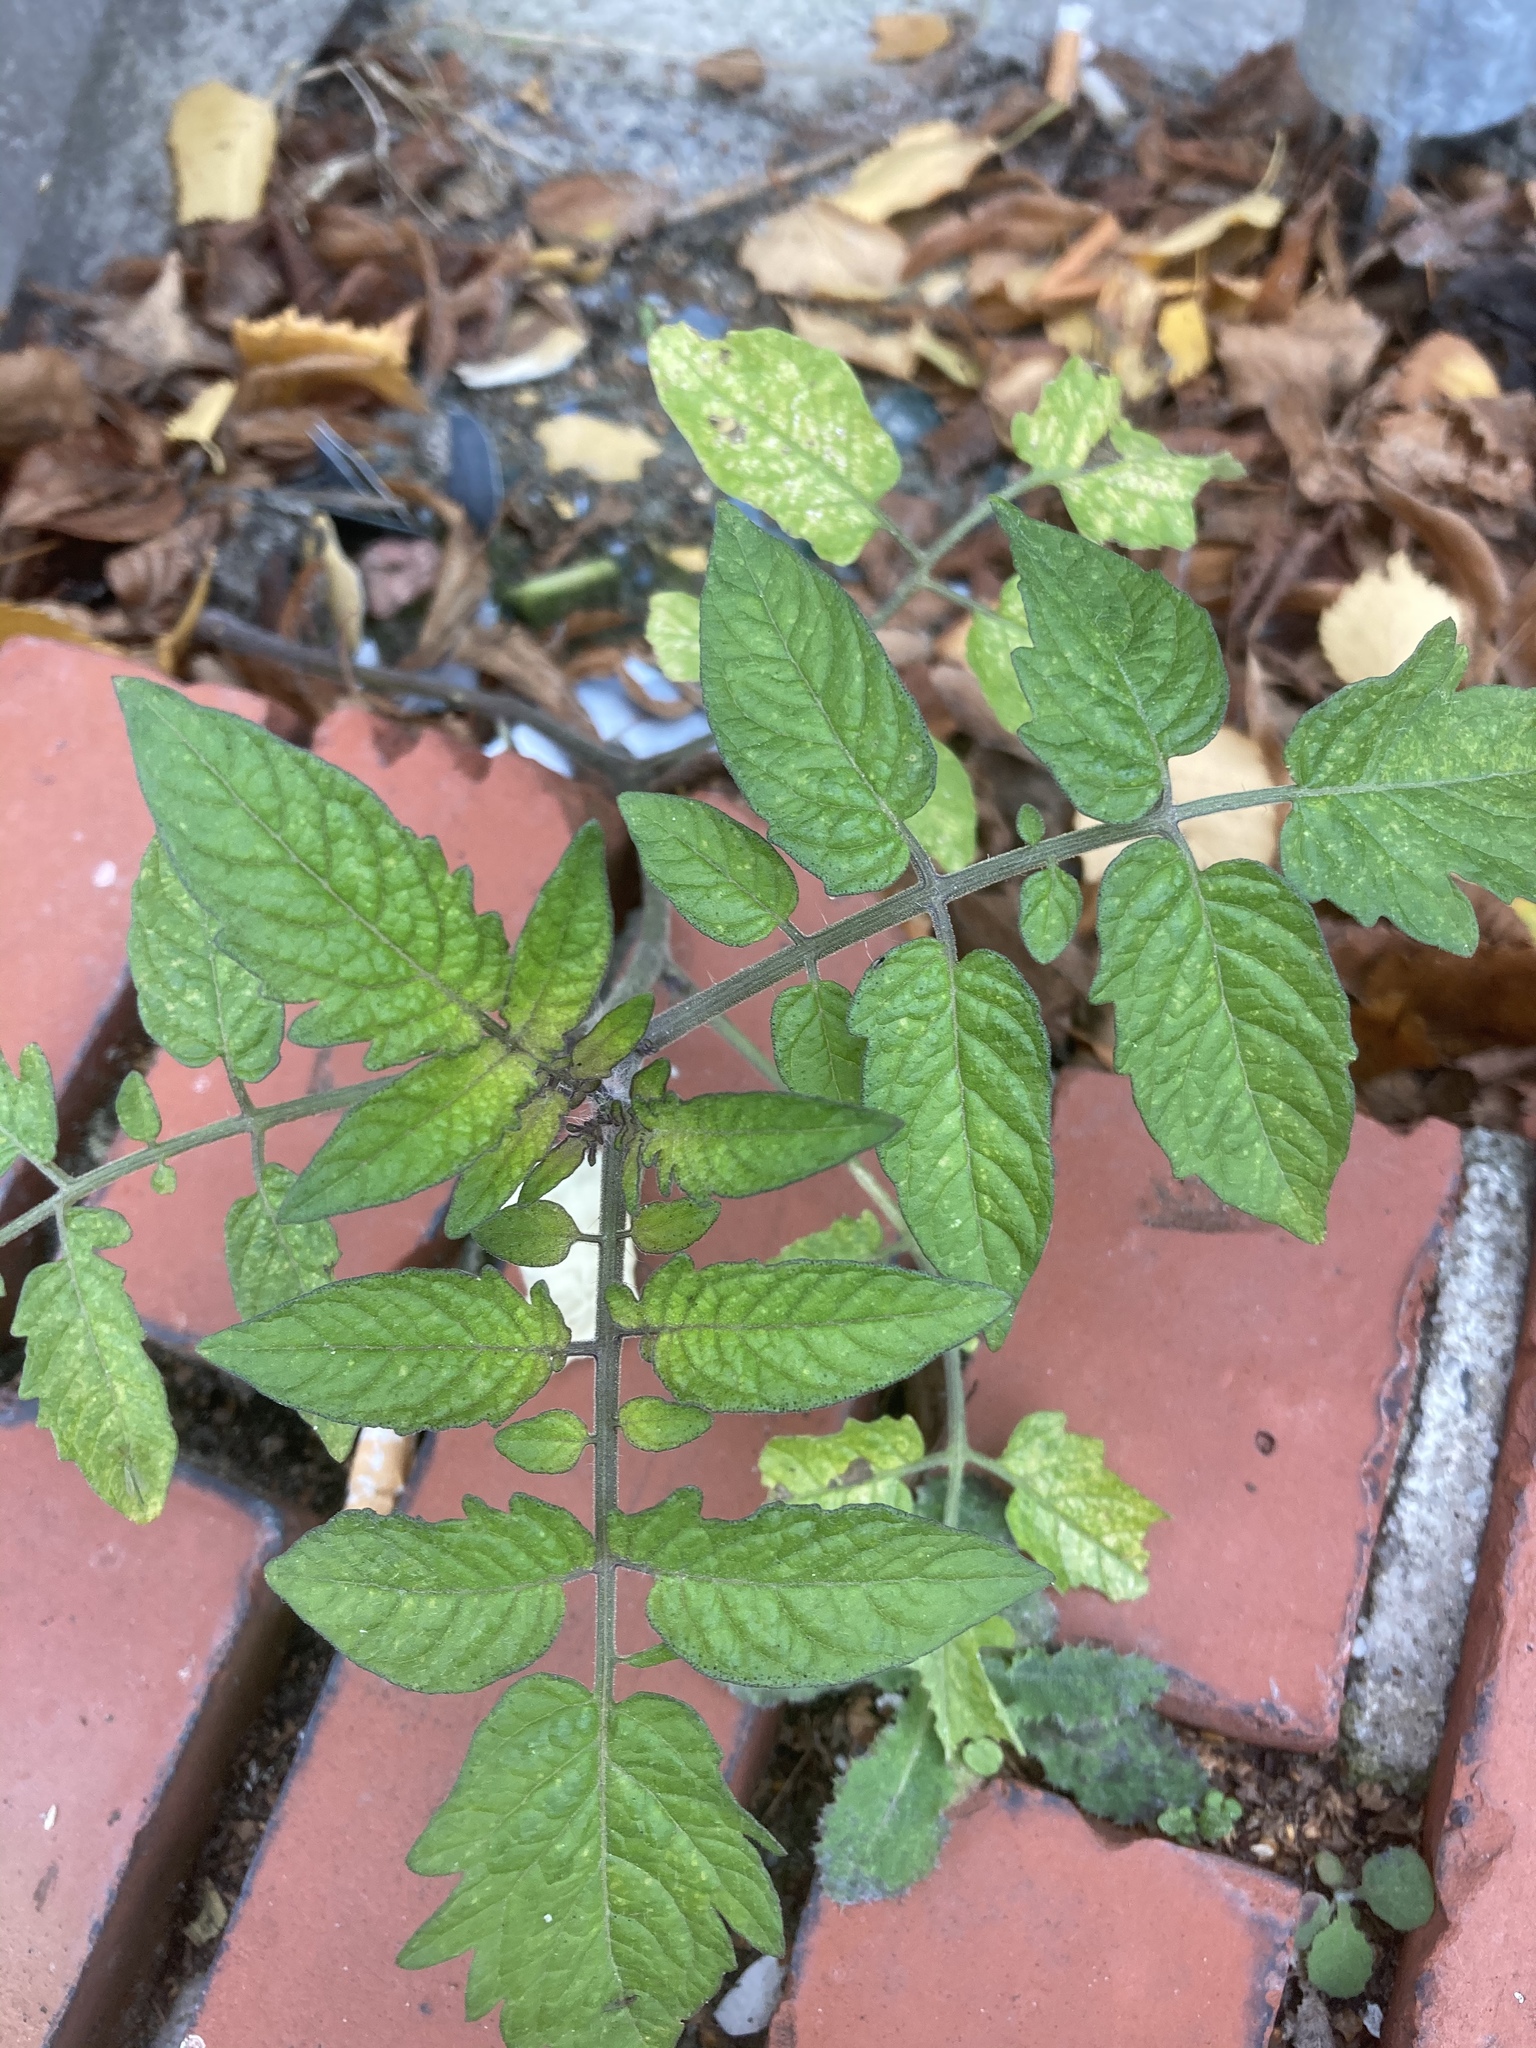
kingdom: Plantae
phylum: Tracheophyta
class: Magnoliopsida
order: Solanales
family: Solanaceae
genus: Solanum
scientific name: Solanum lycopersicum
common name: Garden tomato
